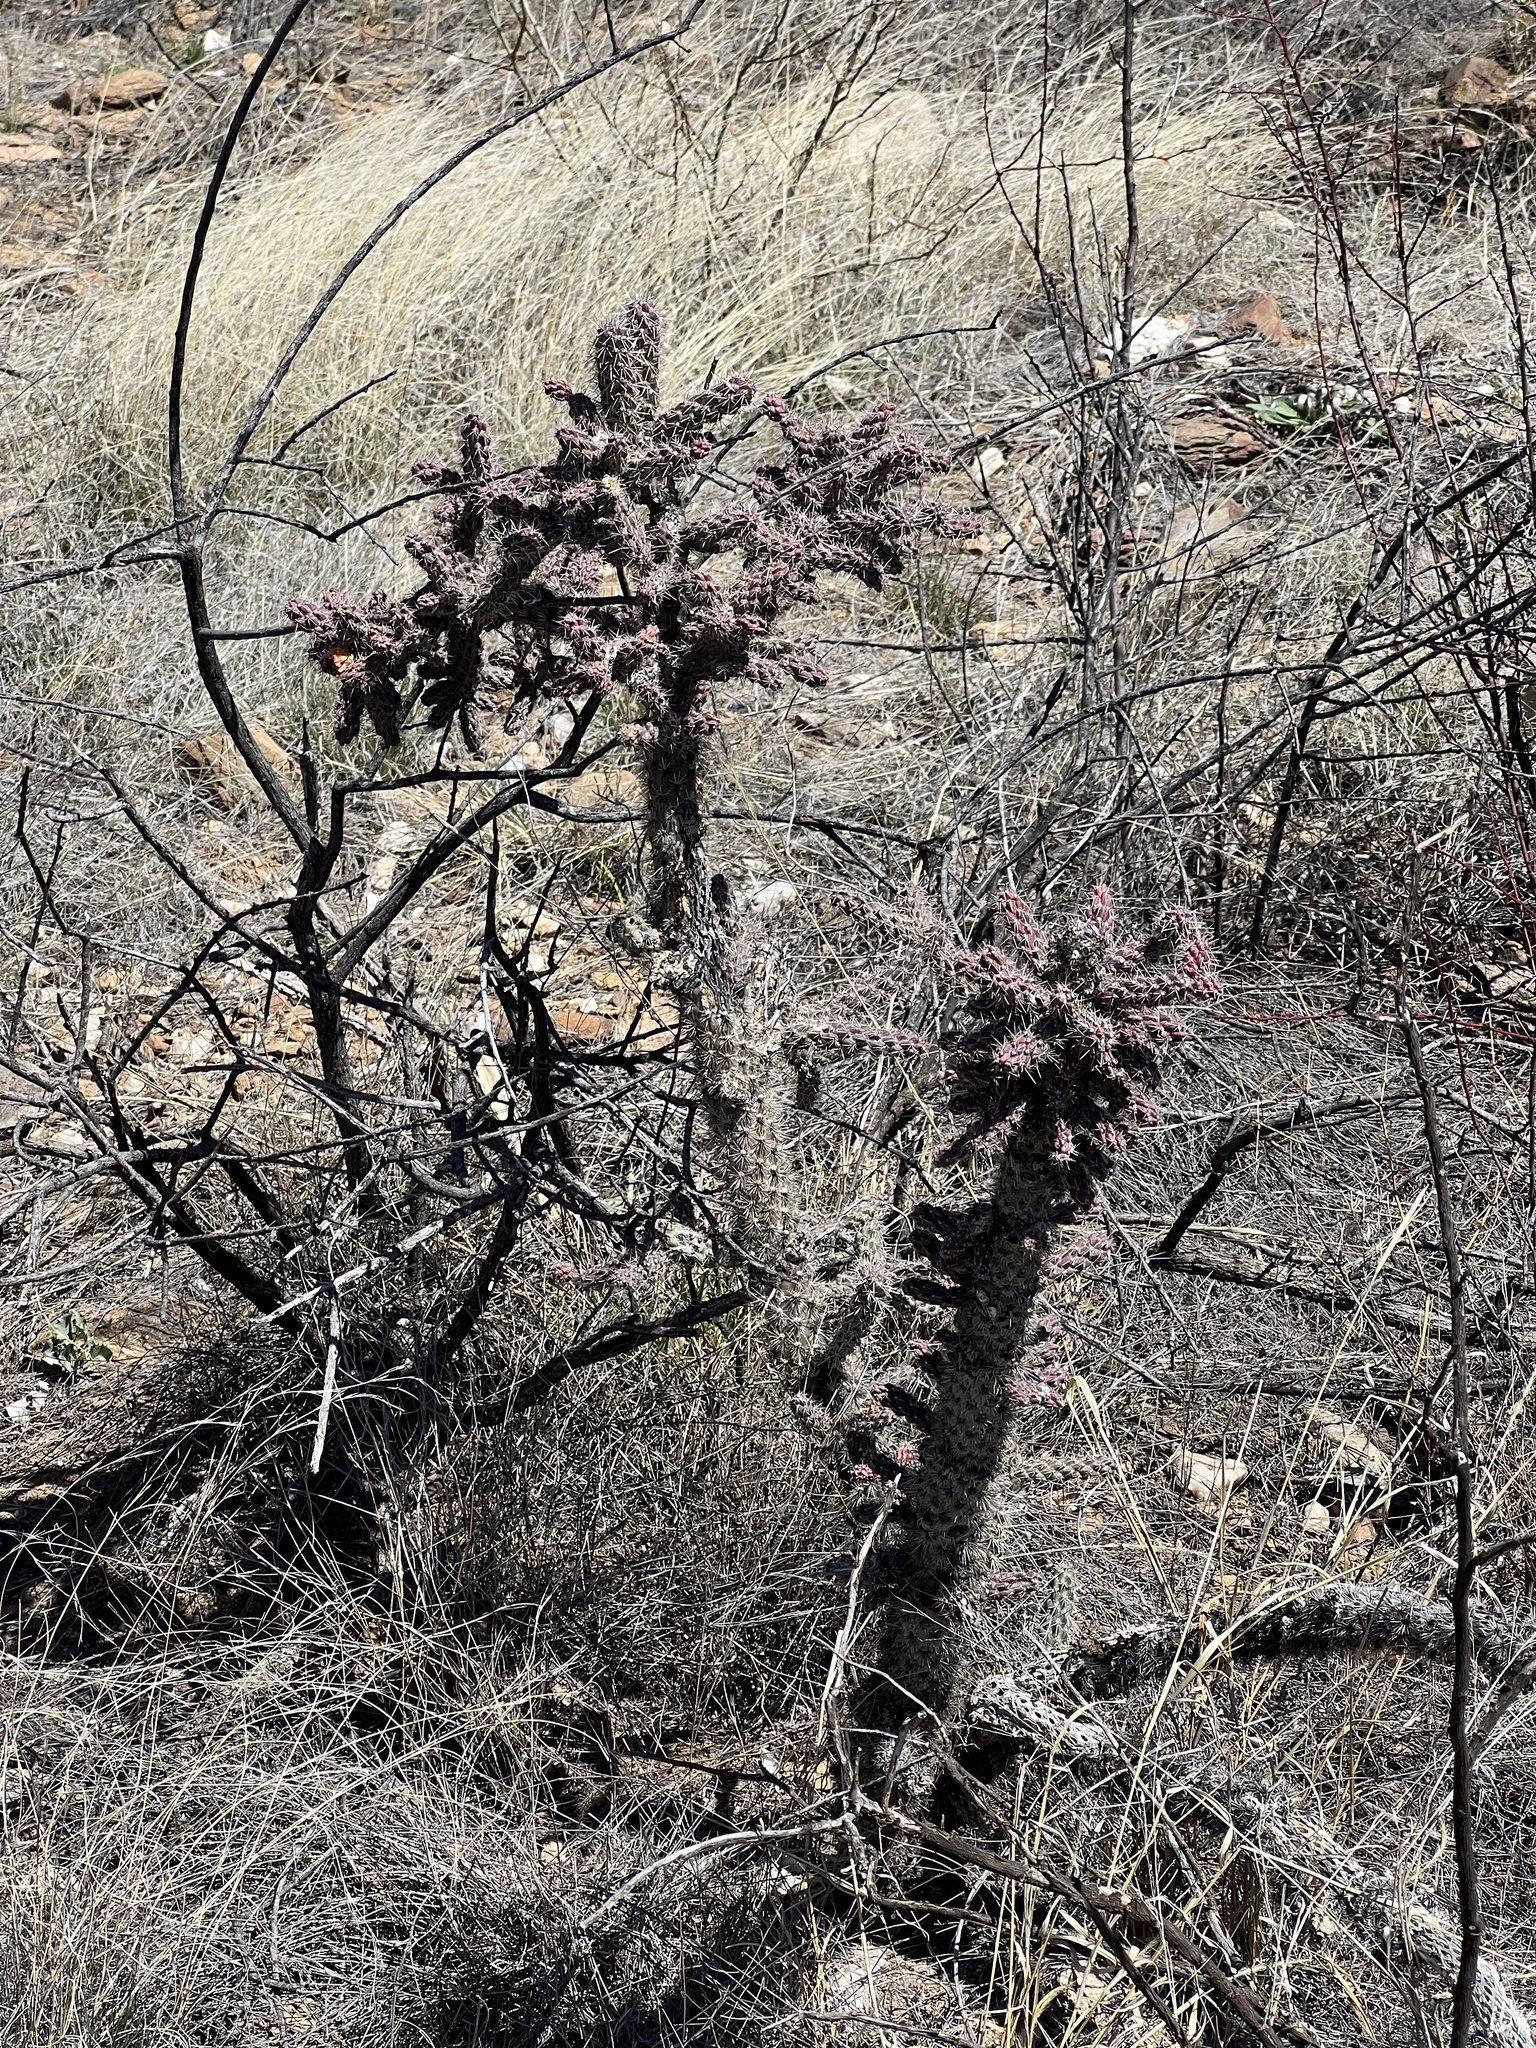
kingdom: Plantae
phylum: Tracheophyta
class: Magnoliopsida
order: Caryophyllales
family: Cactaceae
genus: Cylindropuntia
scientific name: Cylindropuntia imbricata
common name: Candelabrum cactus
